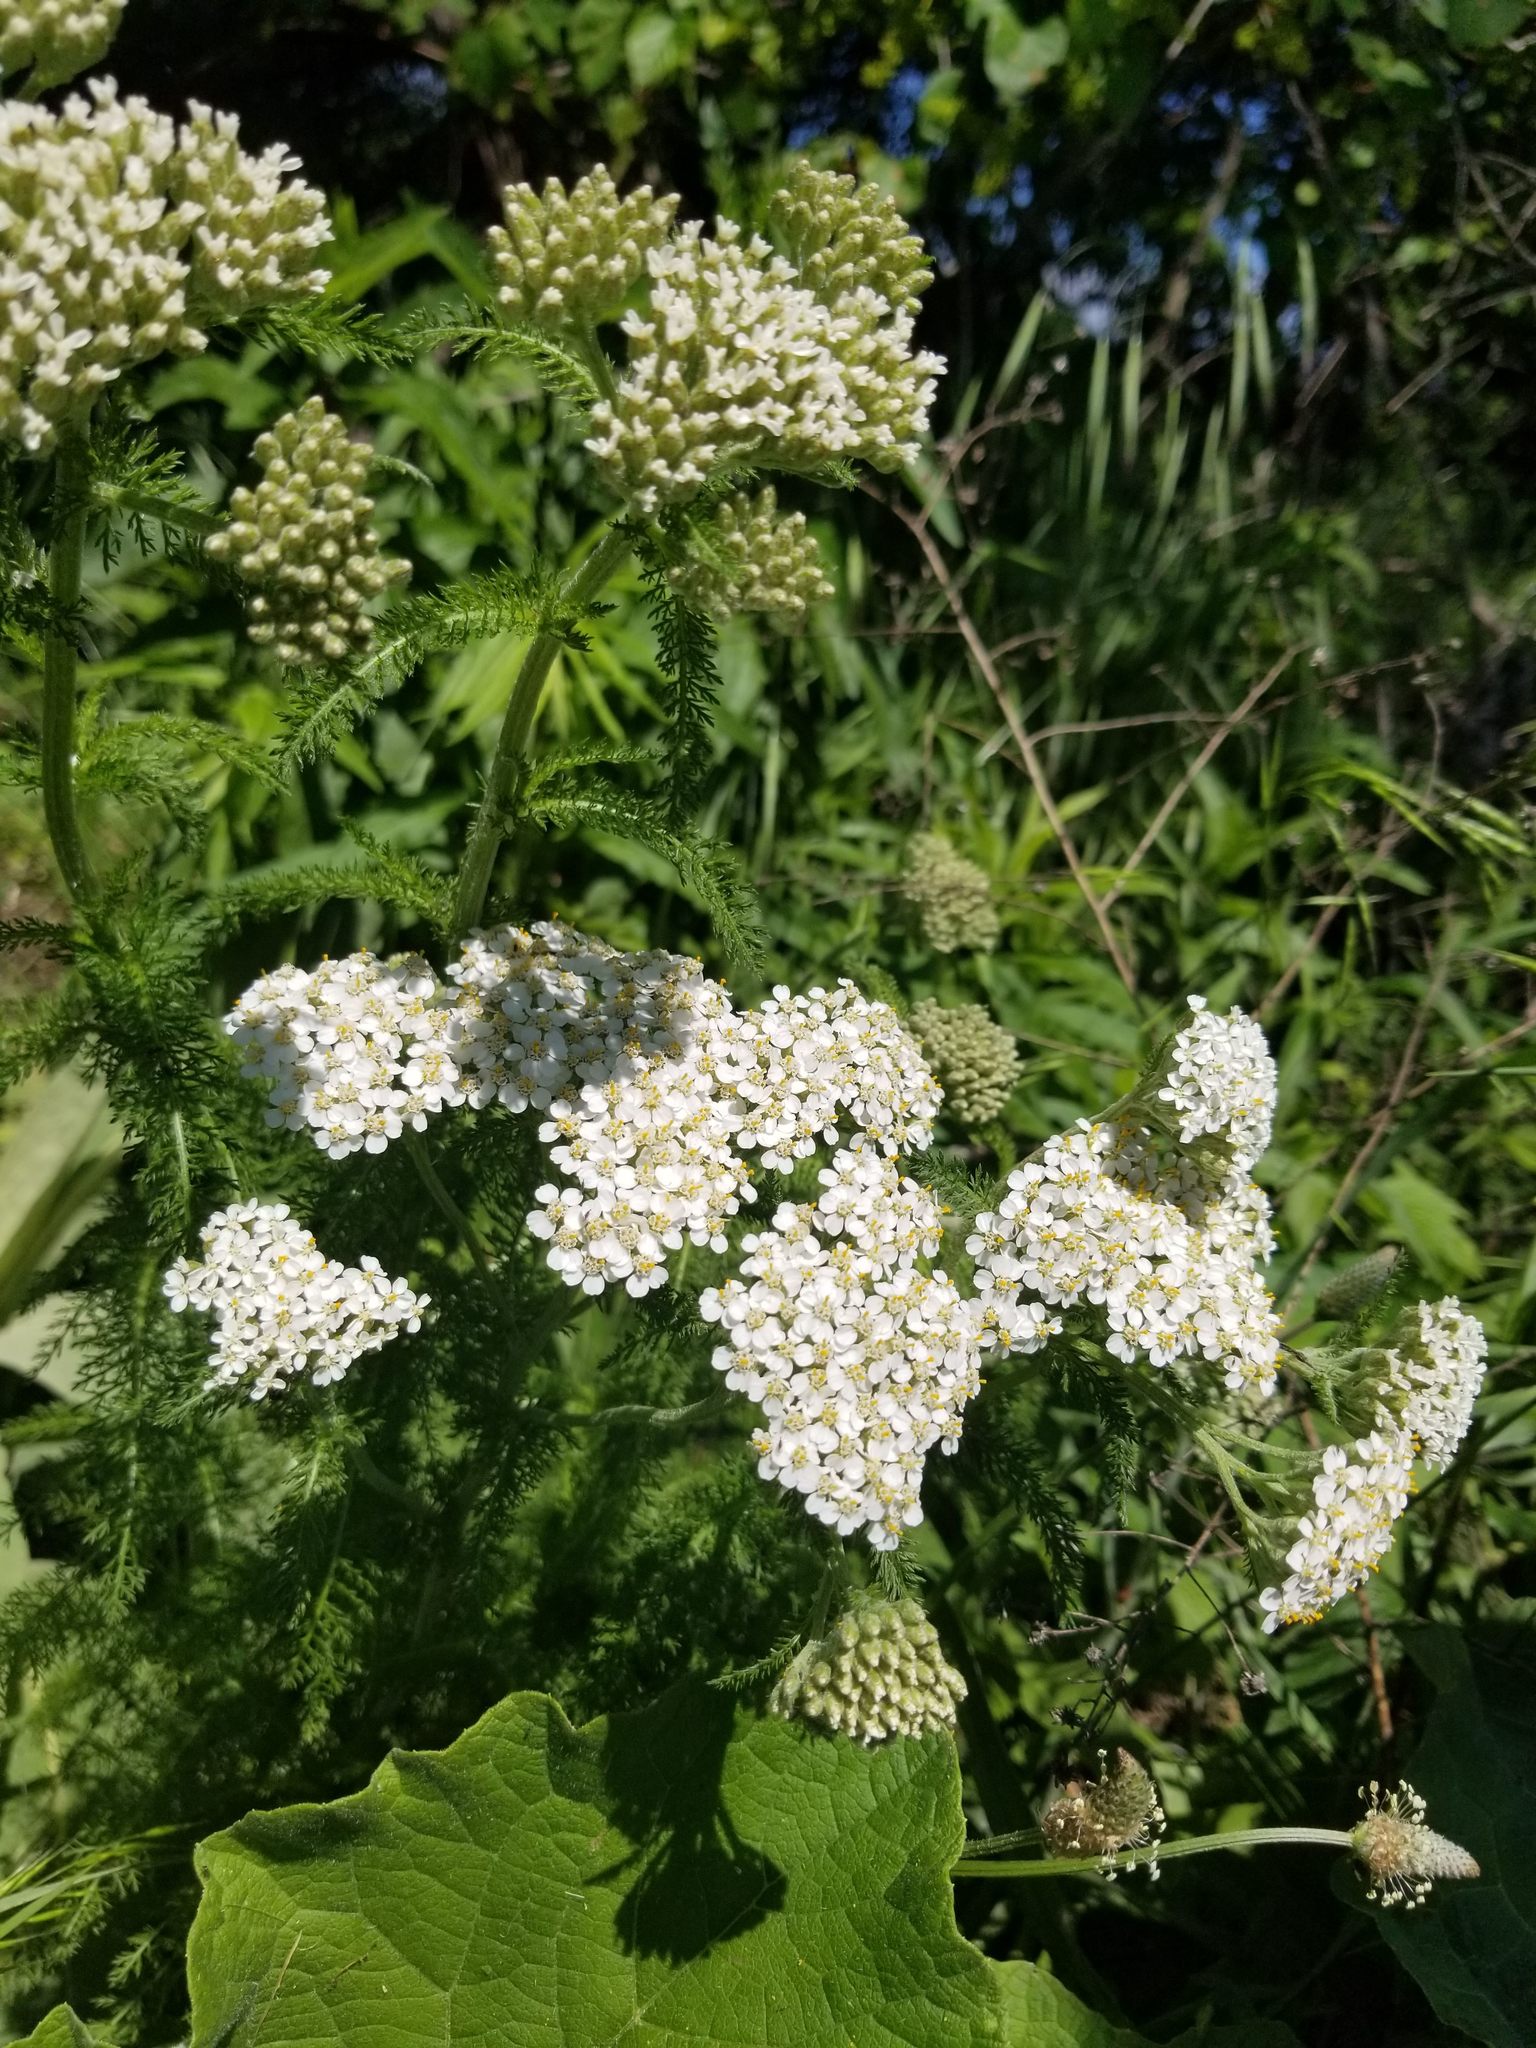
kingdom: Plantae
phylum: Tracheophyta
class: Magnoliopsida
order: Asterales
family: Asteraceae
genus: Achillea
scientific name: Achillea millefolium
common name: Yarrow
